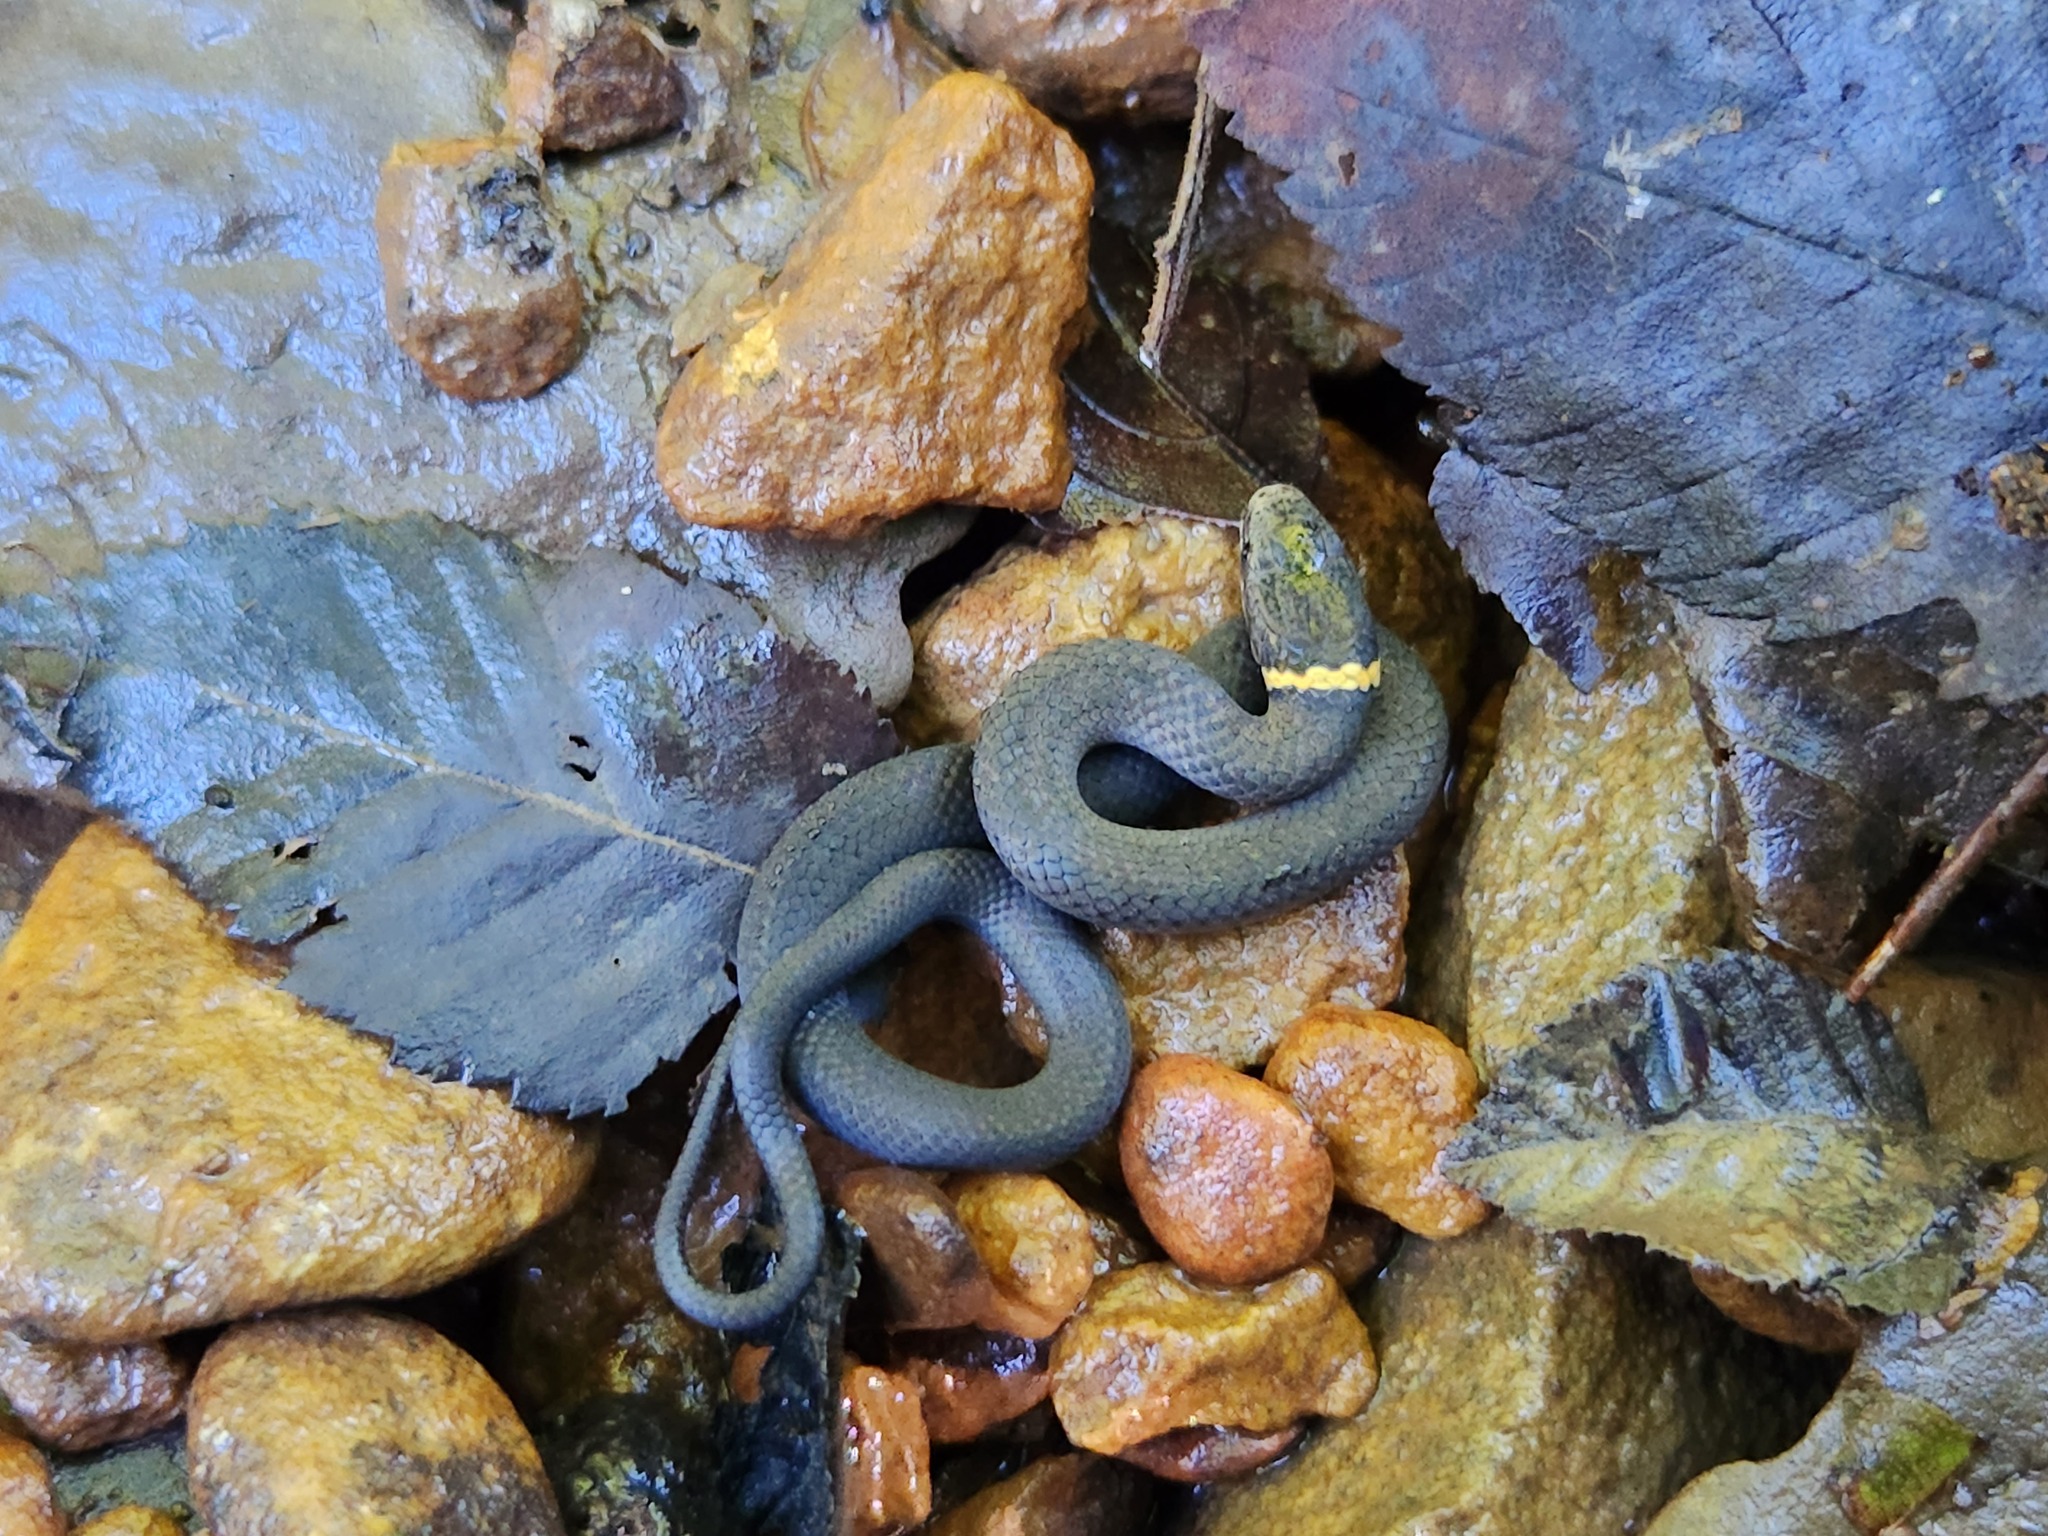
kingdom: Animalia
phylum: Chordata
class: Squamata
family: Colubridae
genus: Diadophis
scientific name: Diadophis punctatus
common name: Ringneck snake
